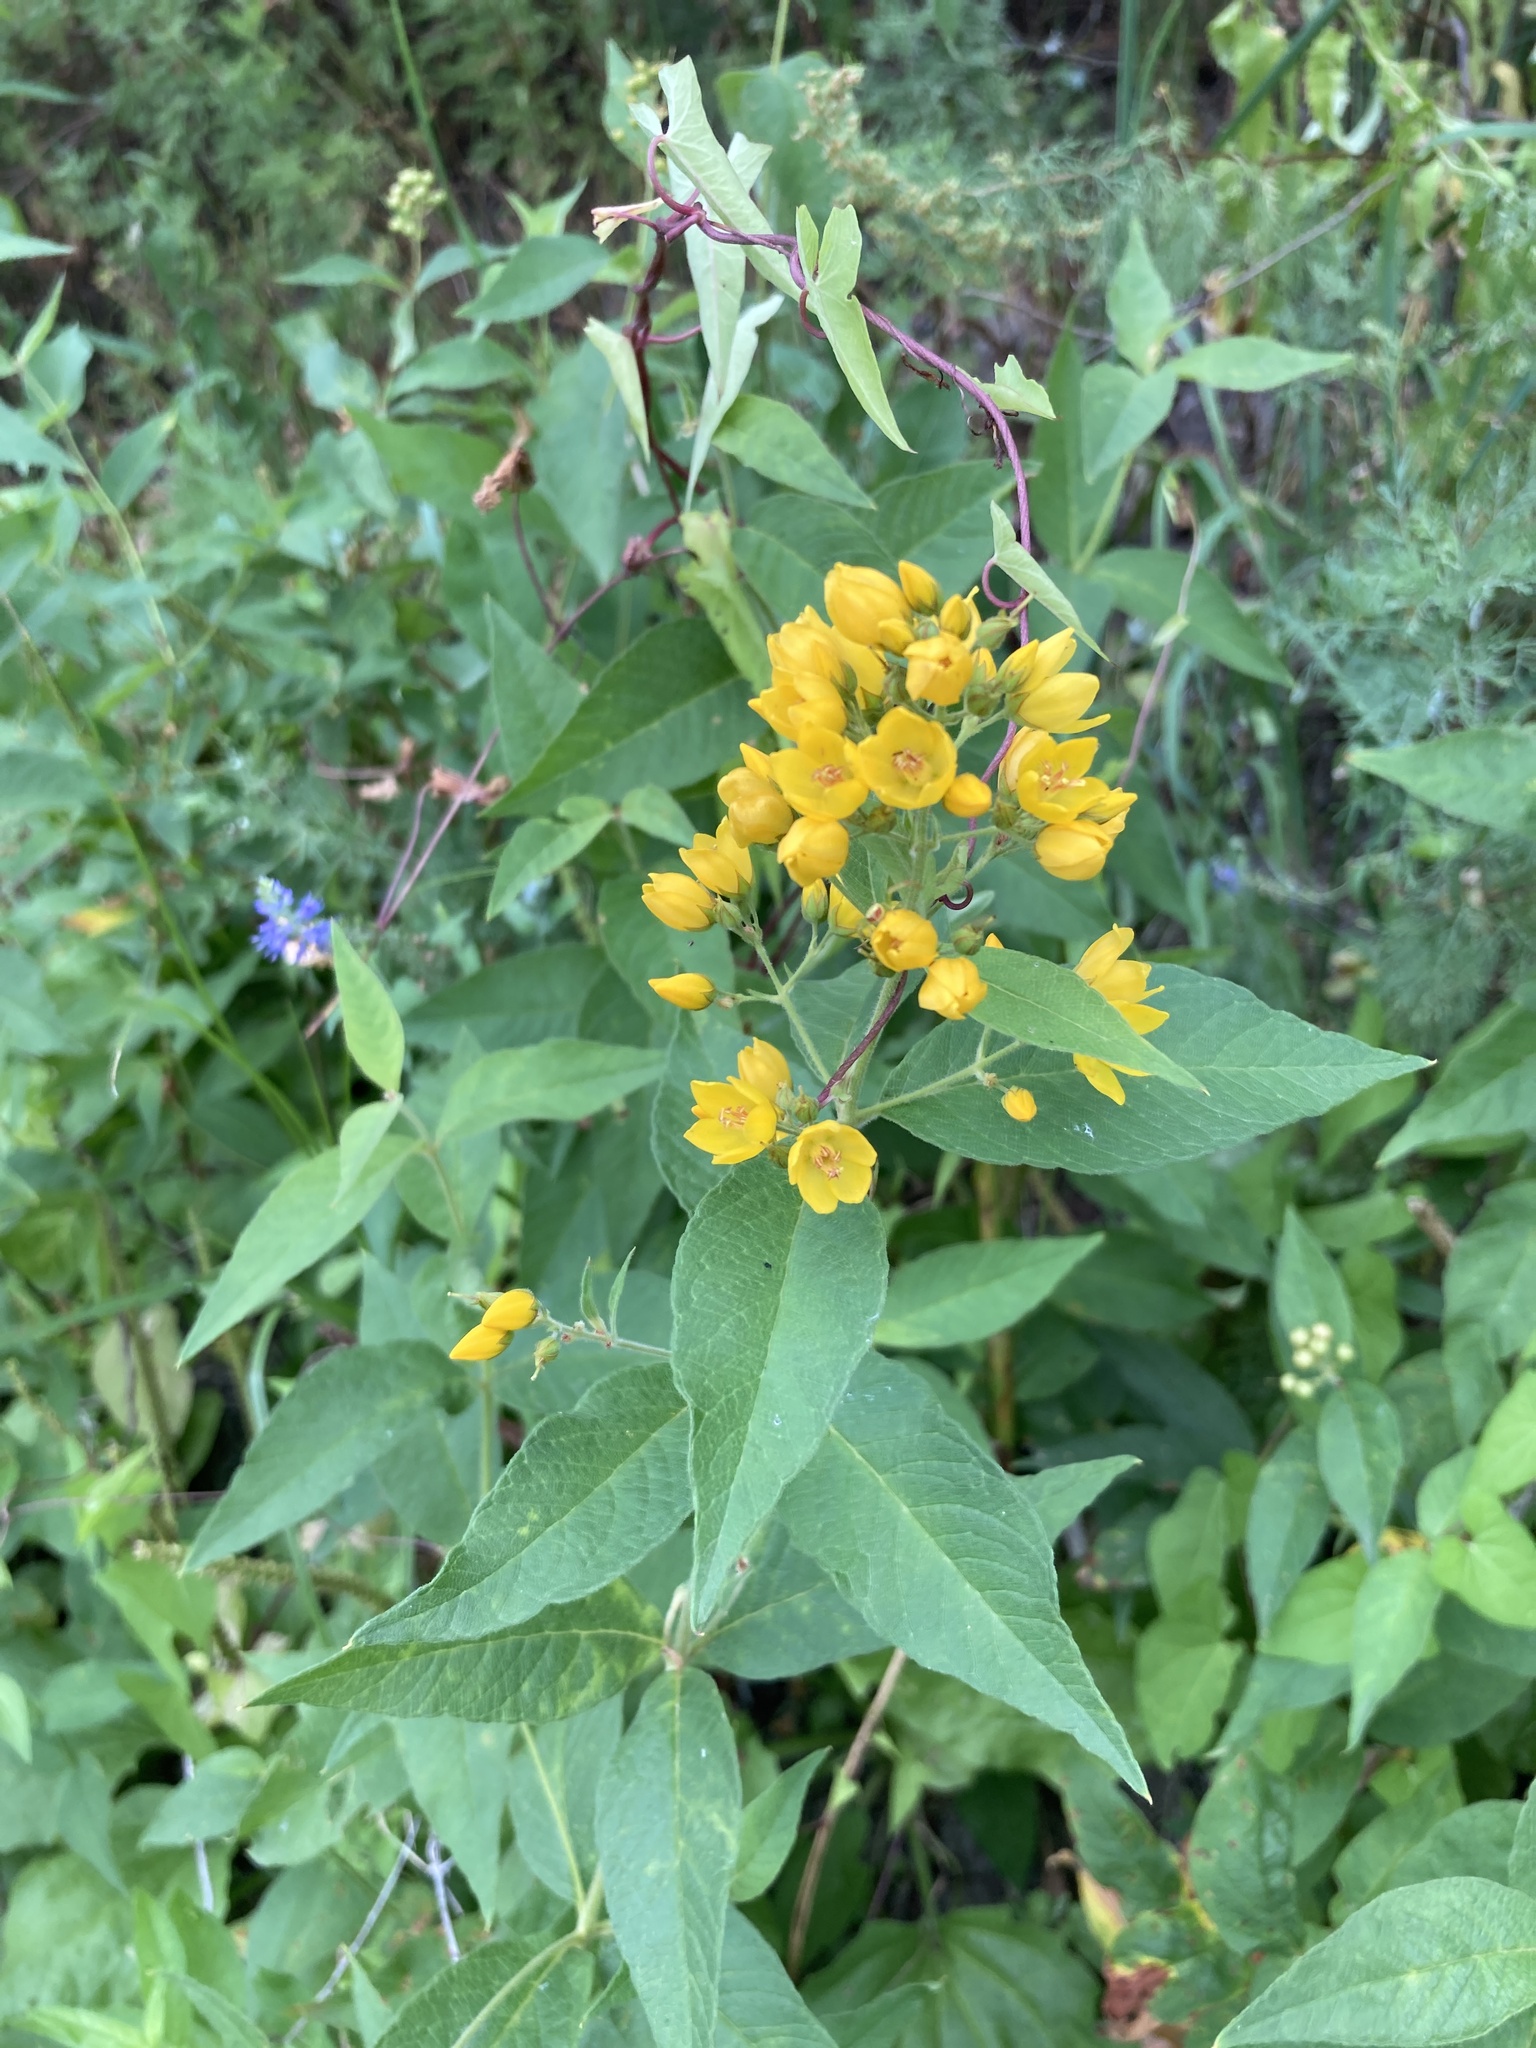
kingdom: Plantae
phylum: Tracheophyta
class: Magnoliopsida
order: Ericales
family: Primulaceae
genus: Lysimachia
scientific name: Lysimachia vulgaris
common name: Yellow loosestrife
